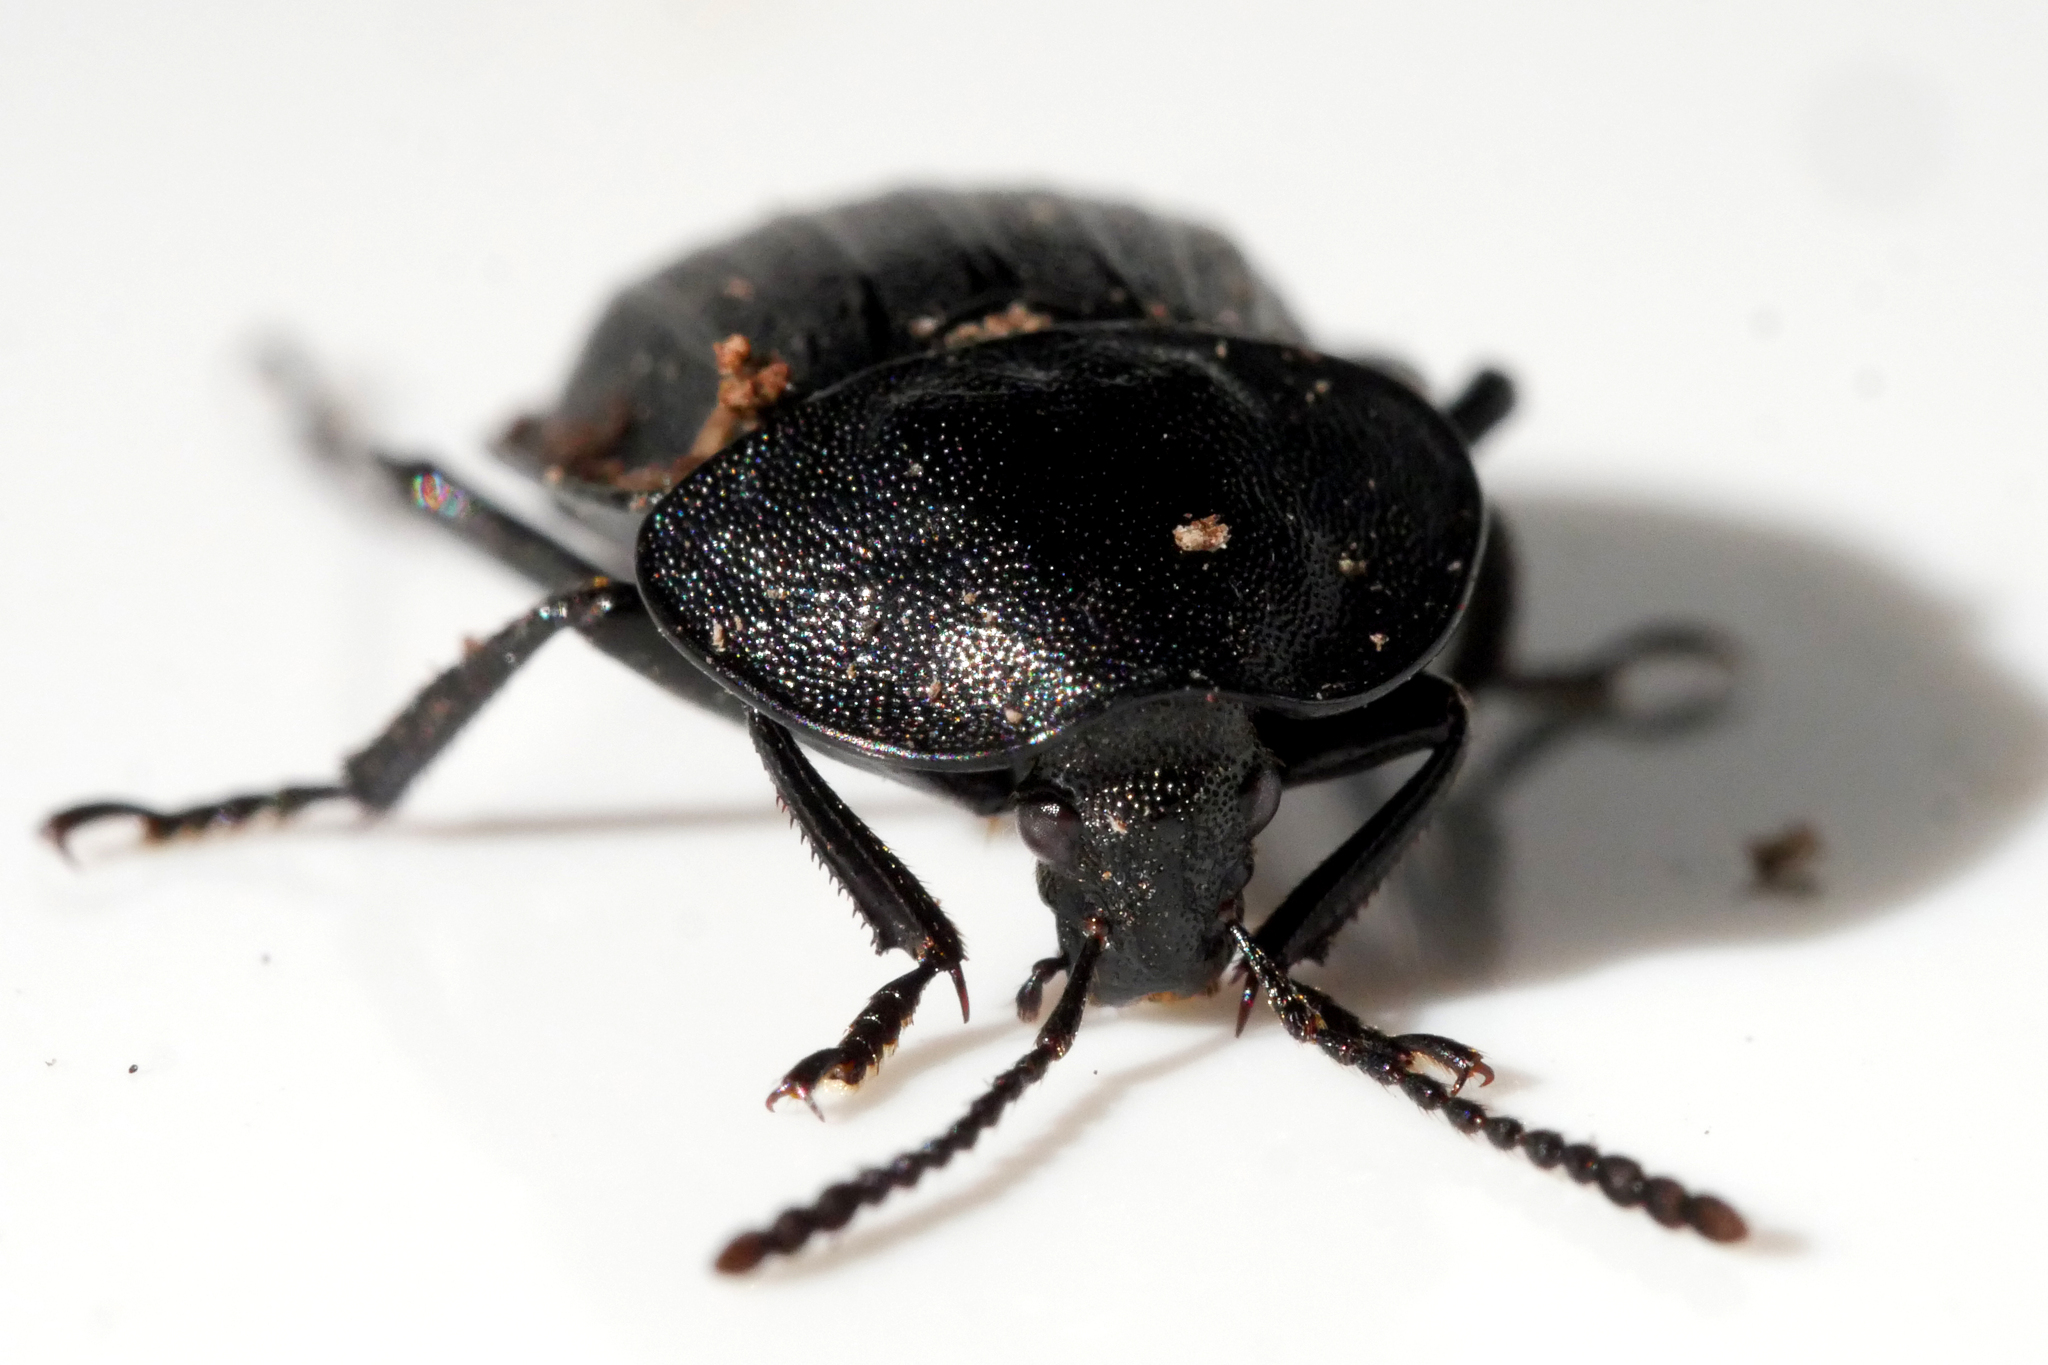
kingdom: Animalia
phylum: Arthropoda
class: Insecta
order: Coleoptera
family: Staphylinidae
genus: Silpha
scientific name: Silpha atrata
